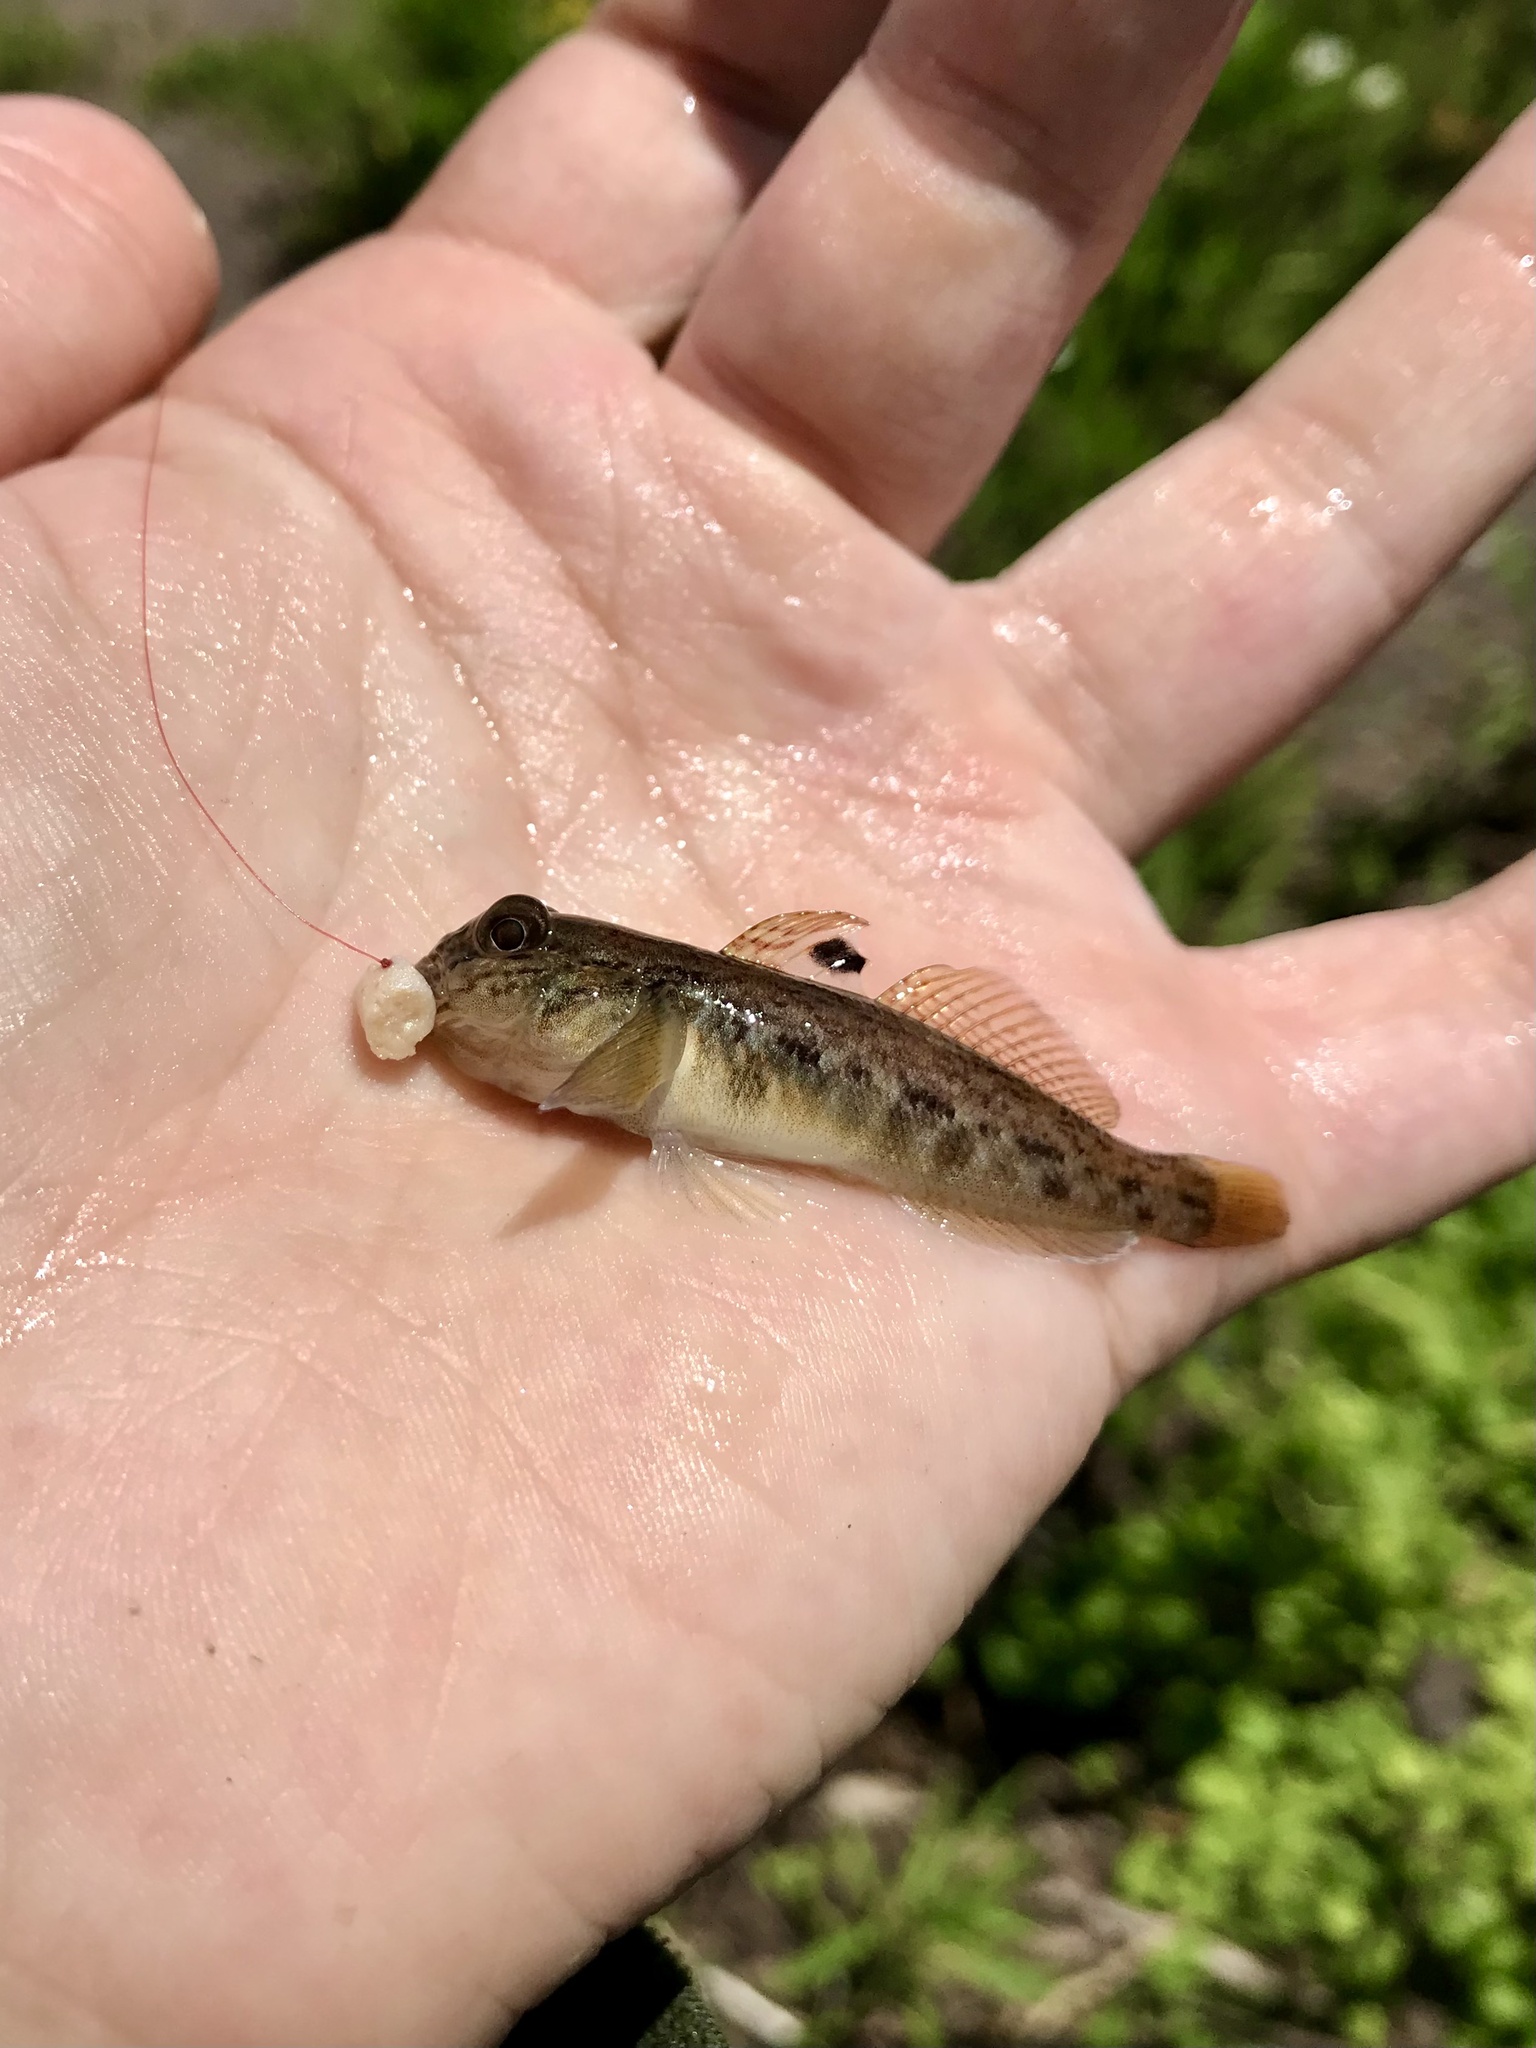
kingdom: Animalia
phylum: Chordata
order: Perciformes
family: Gobiidae
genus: Neogobius
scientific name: Neogobius melanostomus
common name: Round goby
